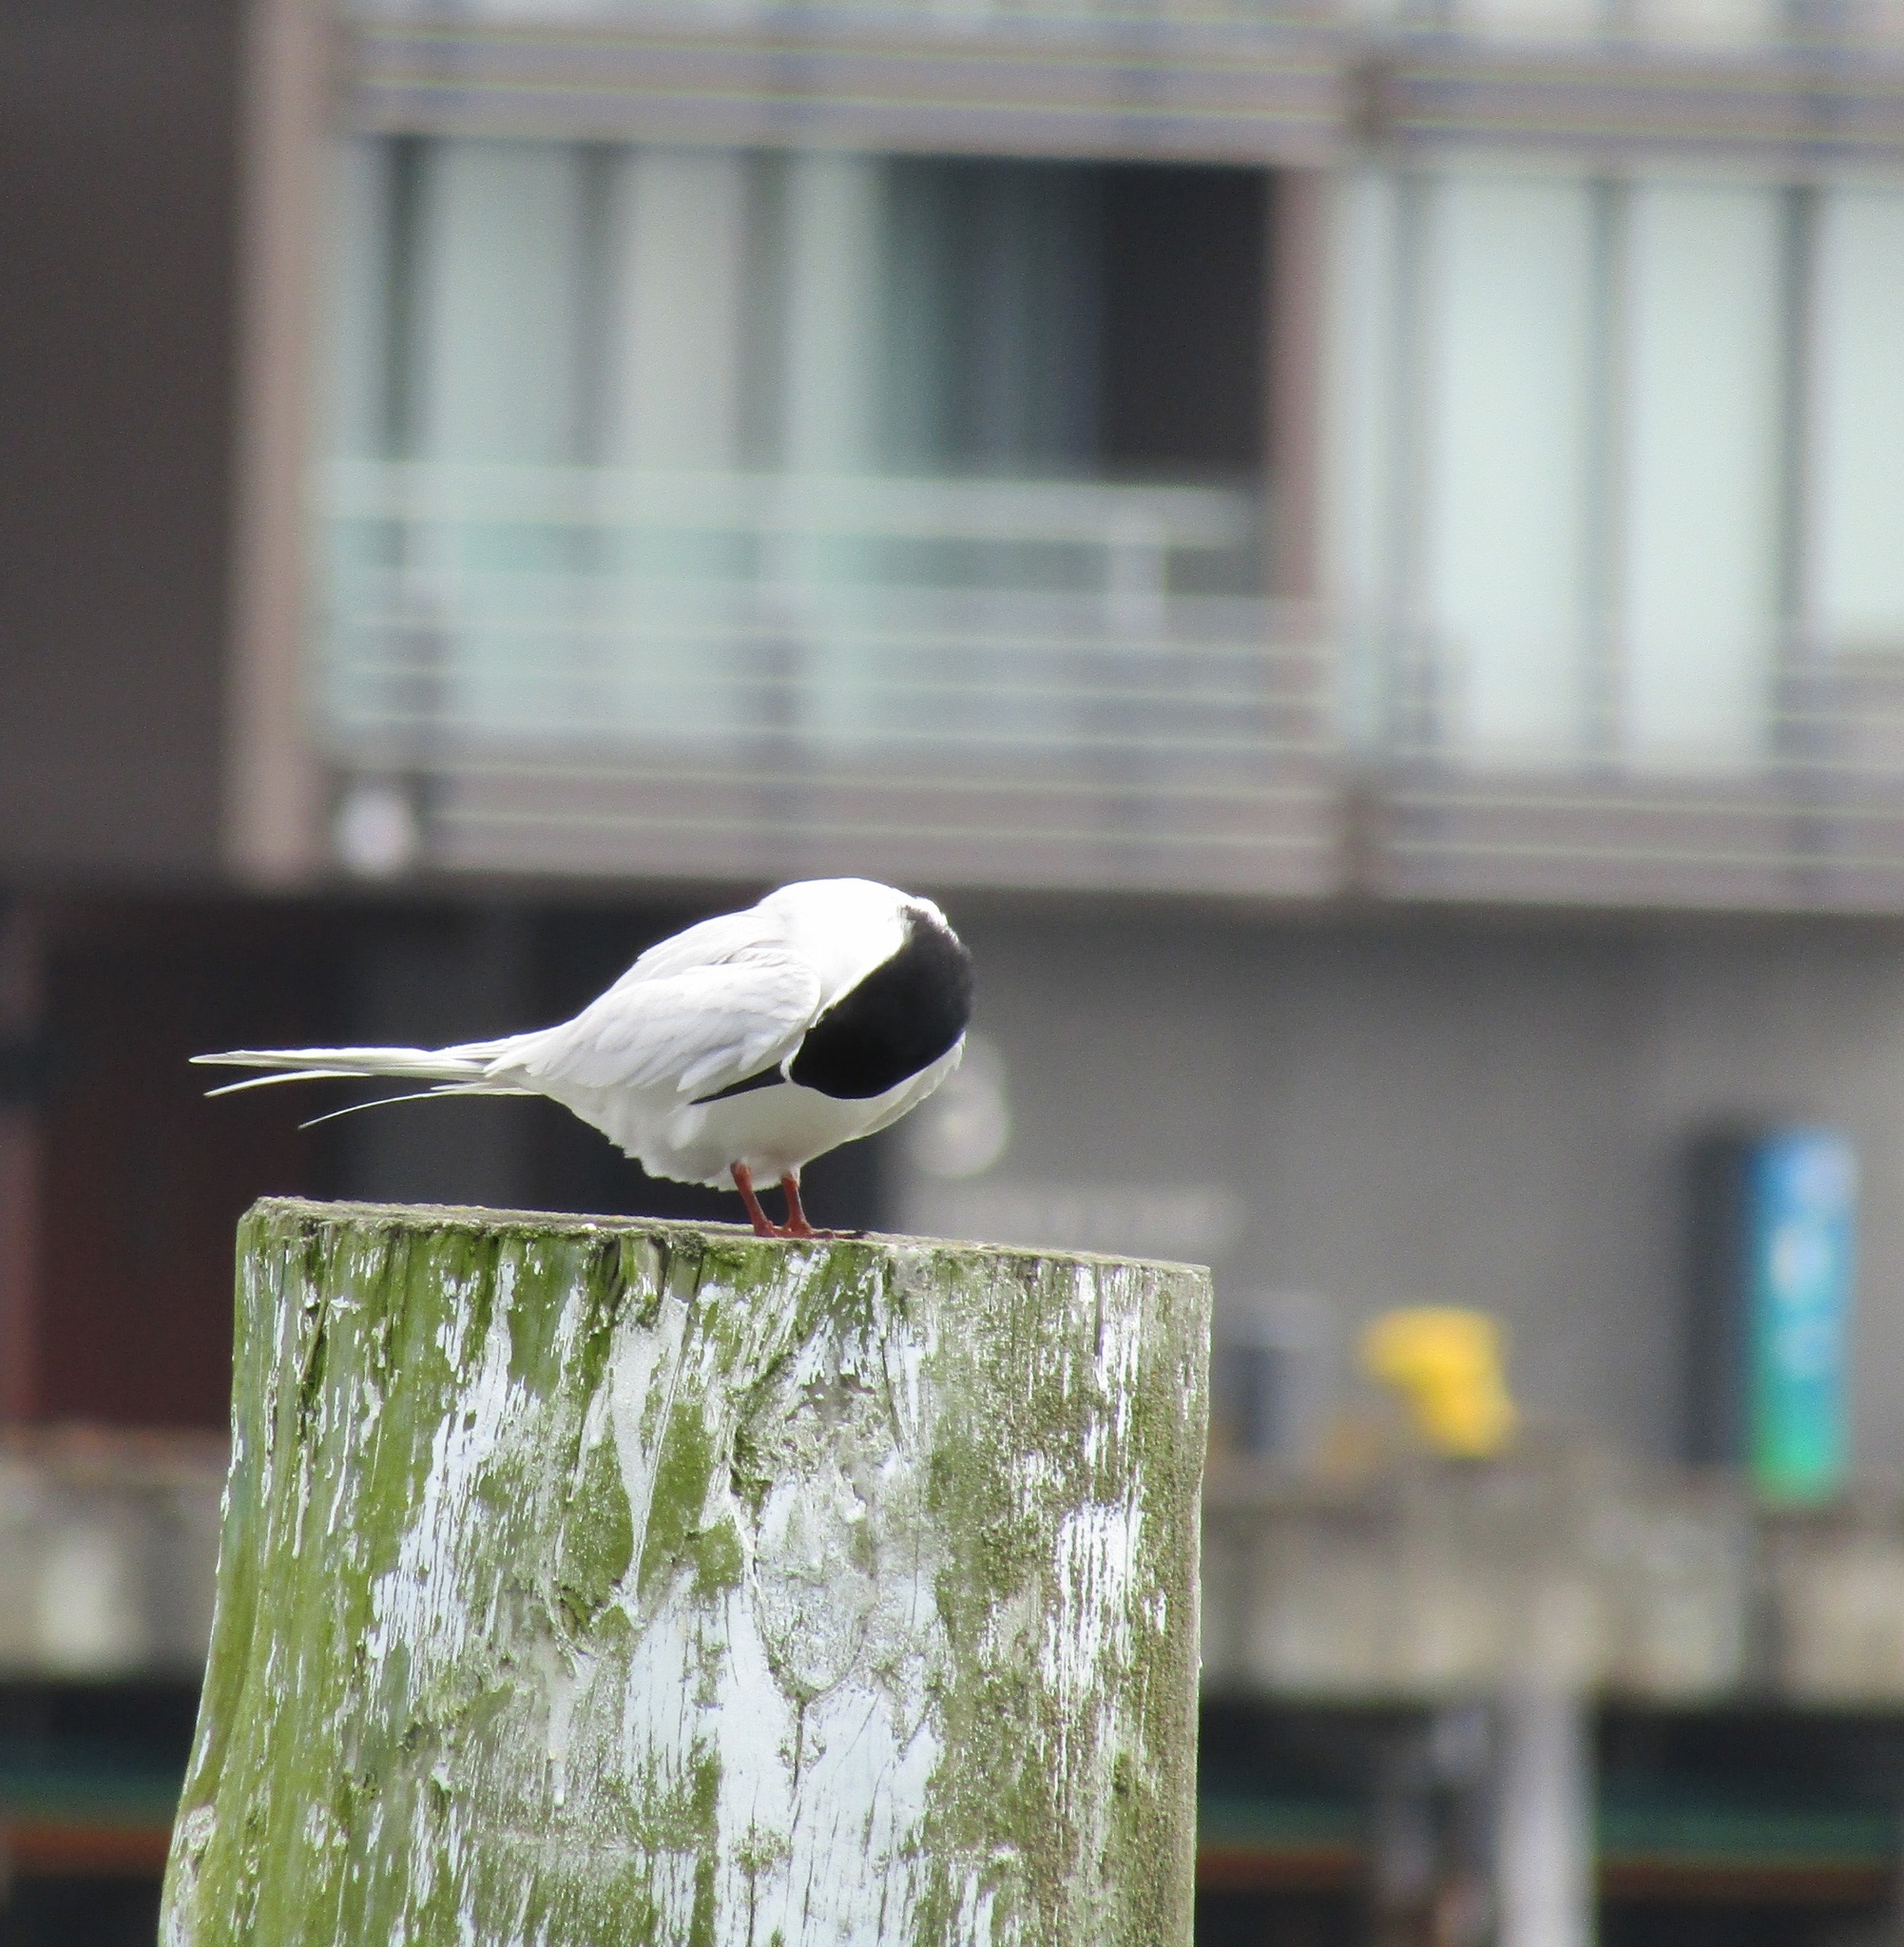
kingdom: Animalia
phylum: Chordata
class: Aves
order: Charadriiformes
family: Laridae
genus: Sterna
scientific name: Sterna striata
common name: White-fronted tern
